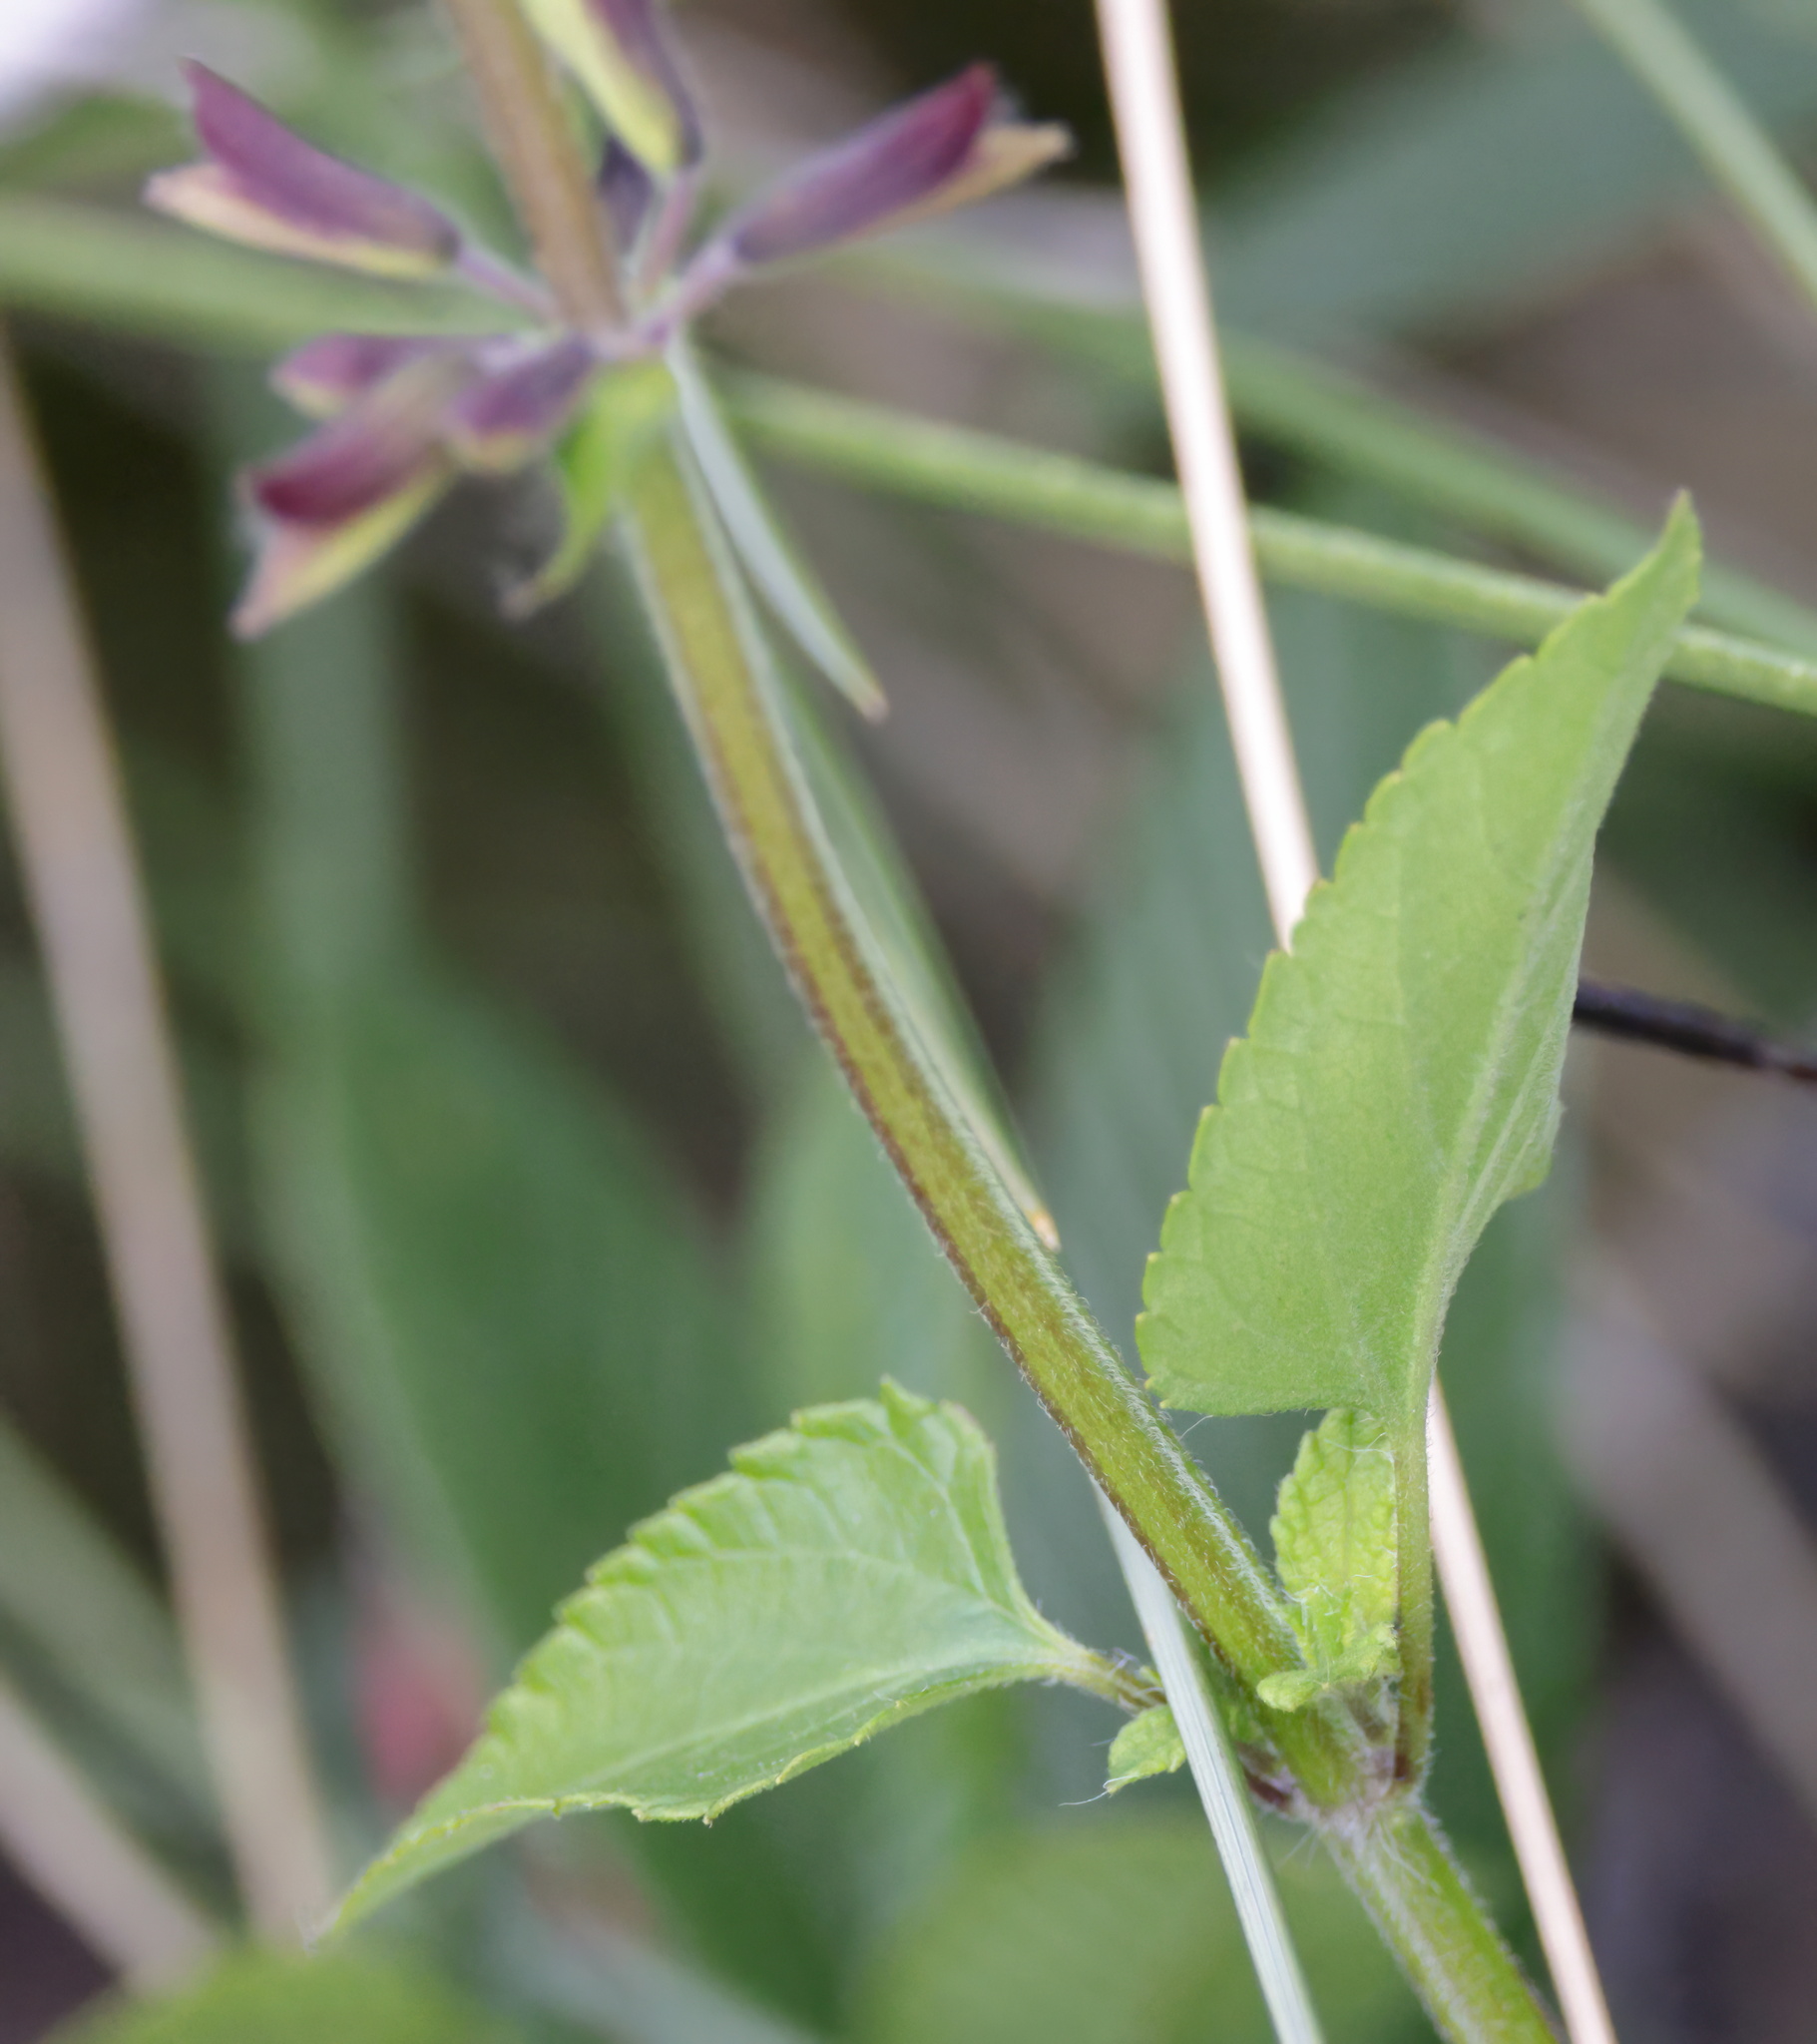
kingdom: Plantae
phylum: Tracheophyta
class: Magnoliopsida
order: Lamiales
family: Lamiaceae
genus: Salvia
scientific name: Salvia coccinea
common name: Blood sage
